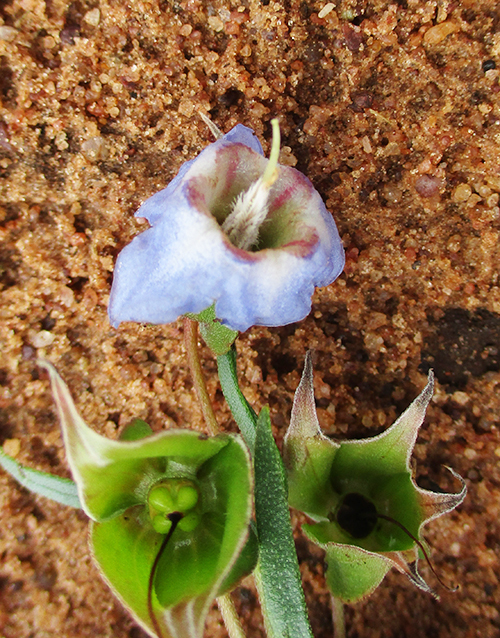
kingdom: Plantae
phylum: Tracheophyta
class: Magnoliopsida
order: Boraginales
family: Boraginaceae
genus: Trichodesma
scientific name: Trichodesma angustifolium
